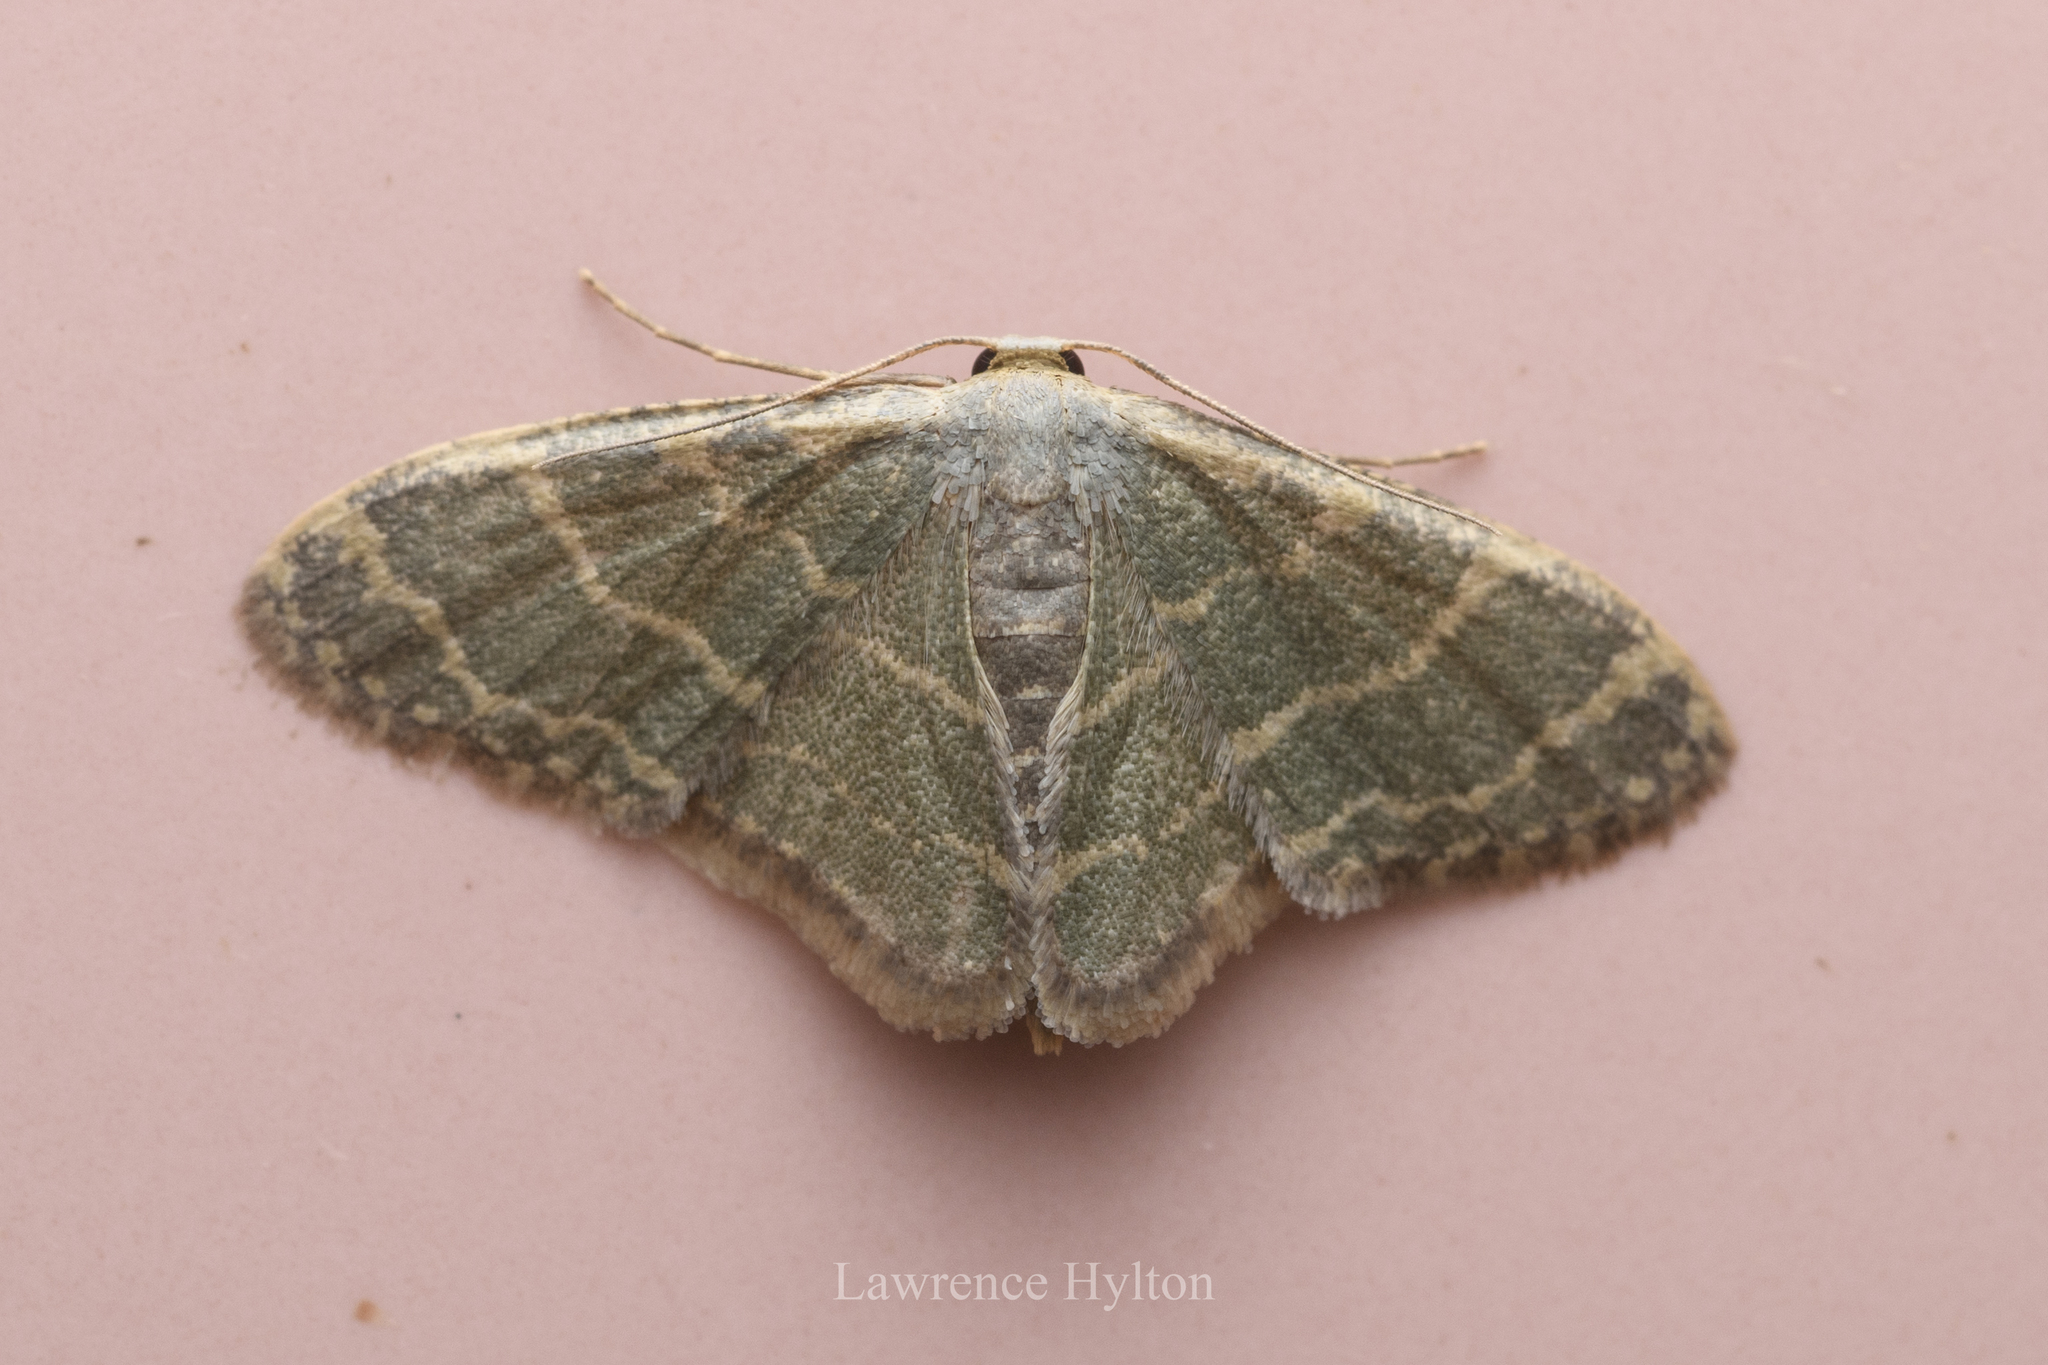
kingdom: Animalia
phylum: Arthropoda
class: Insecta
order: Lepidoptera
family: Geometridae
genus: Lophophleps
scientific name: Lophophleps triangularis
